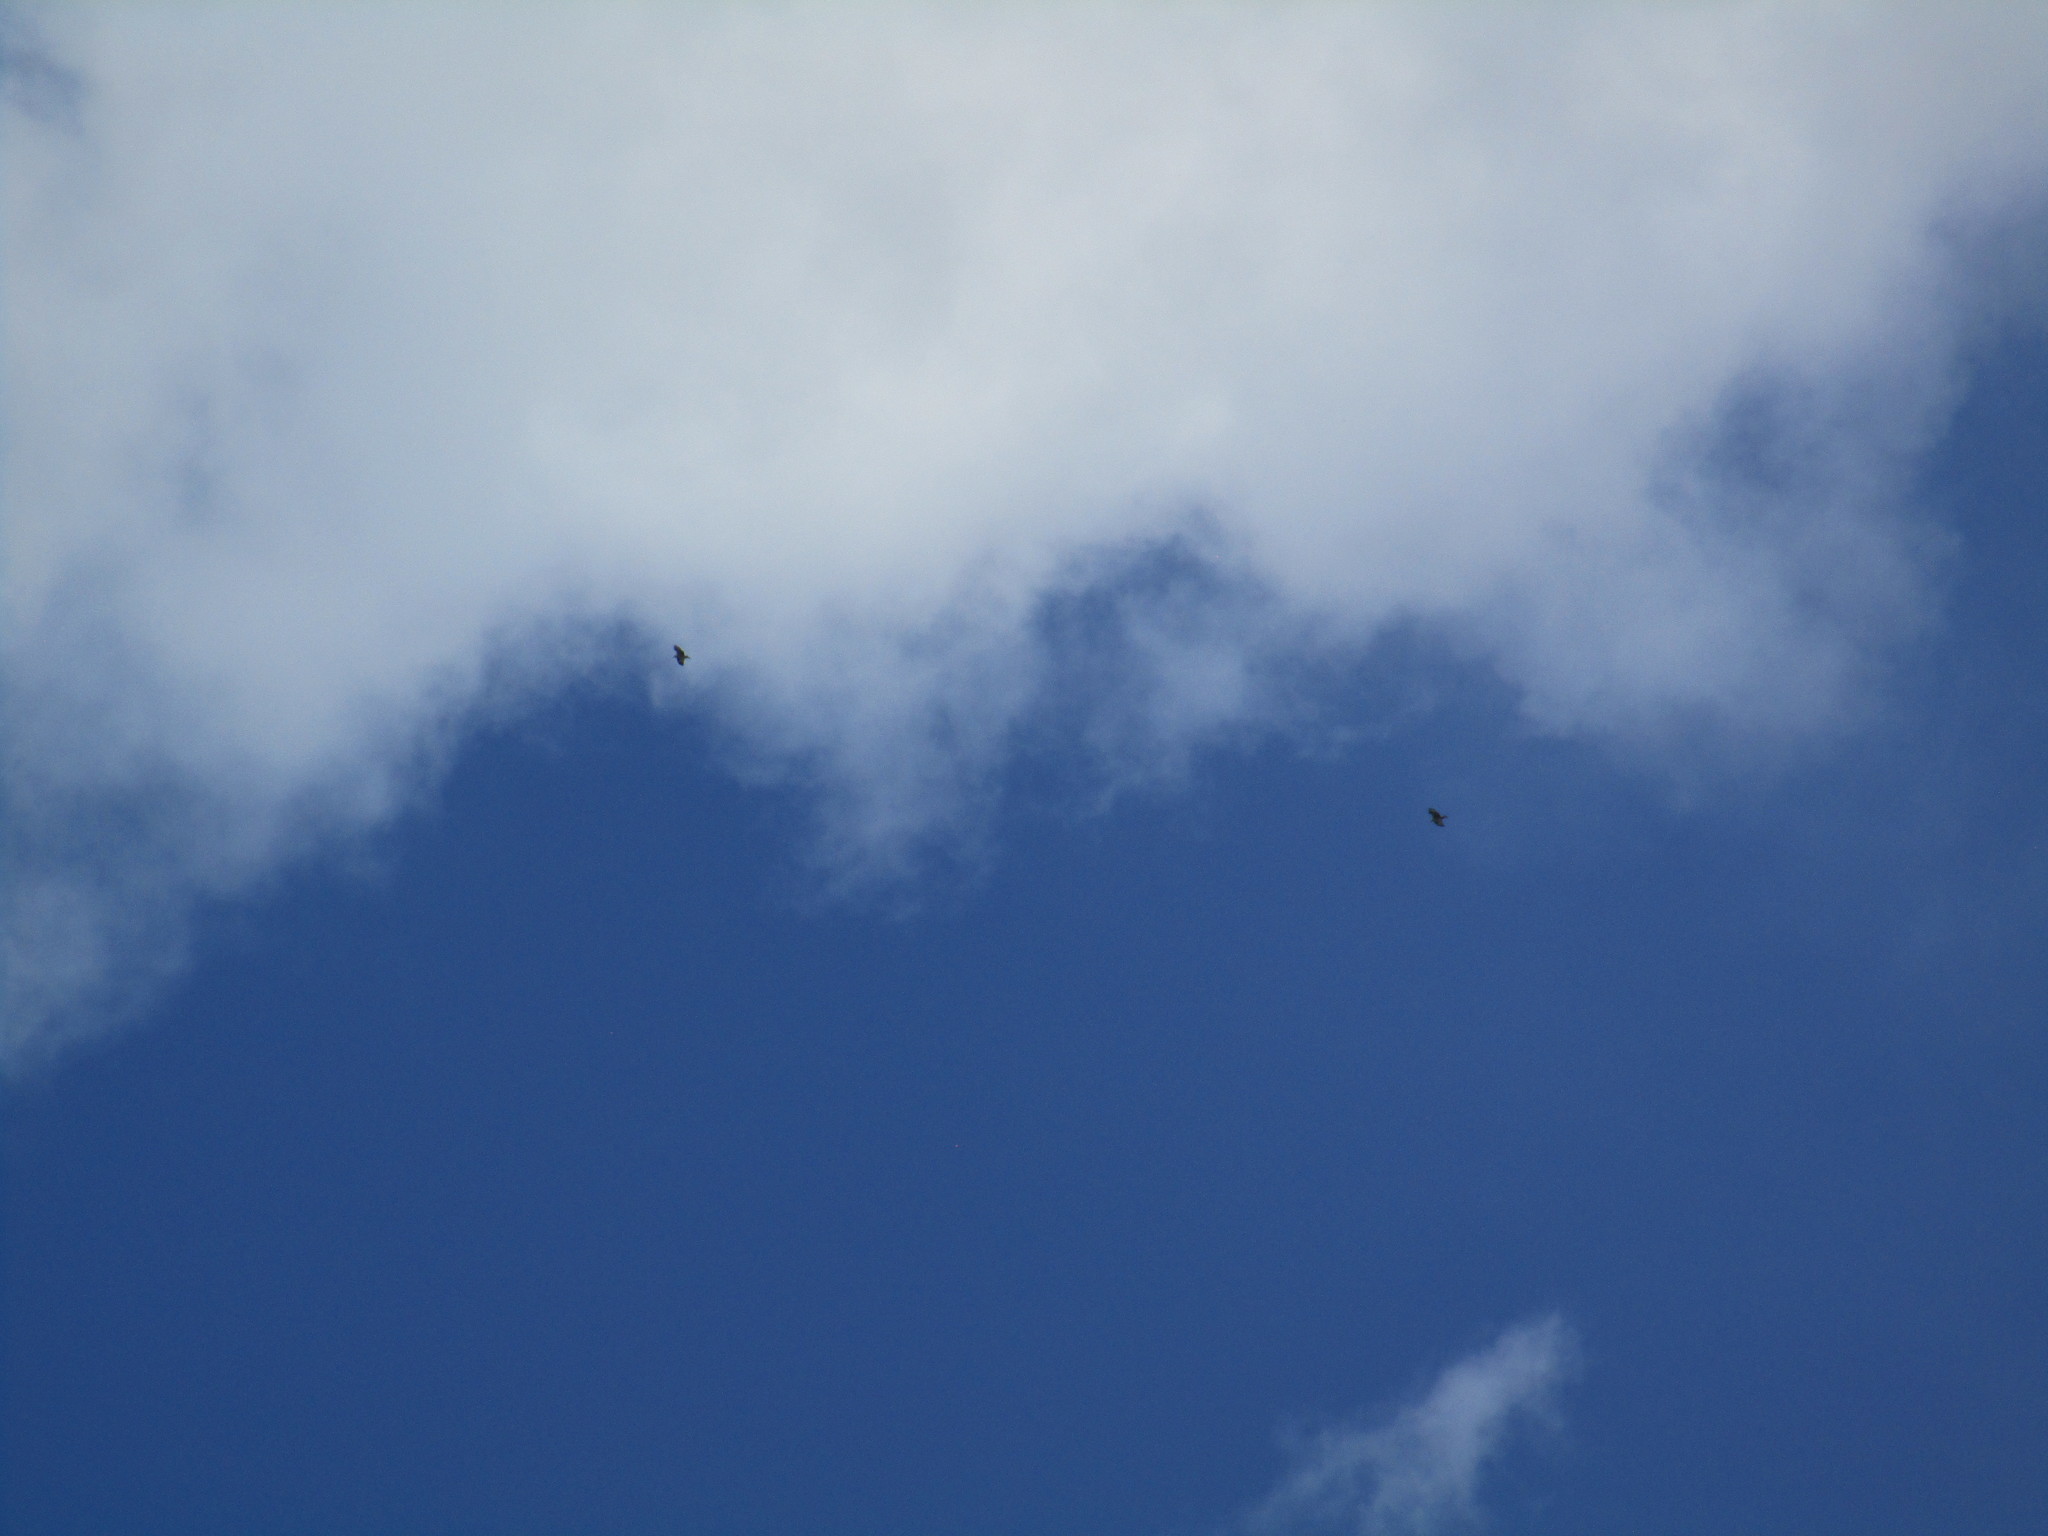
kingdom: Animalia
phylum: Chordata
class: Aves
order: Accipitriformes
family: Pandionidae
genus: Pandion
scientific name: Pandion haliaetus
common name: Osprey
